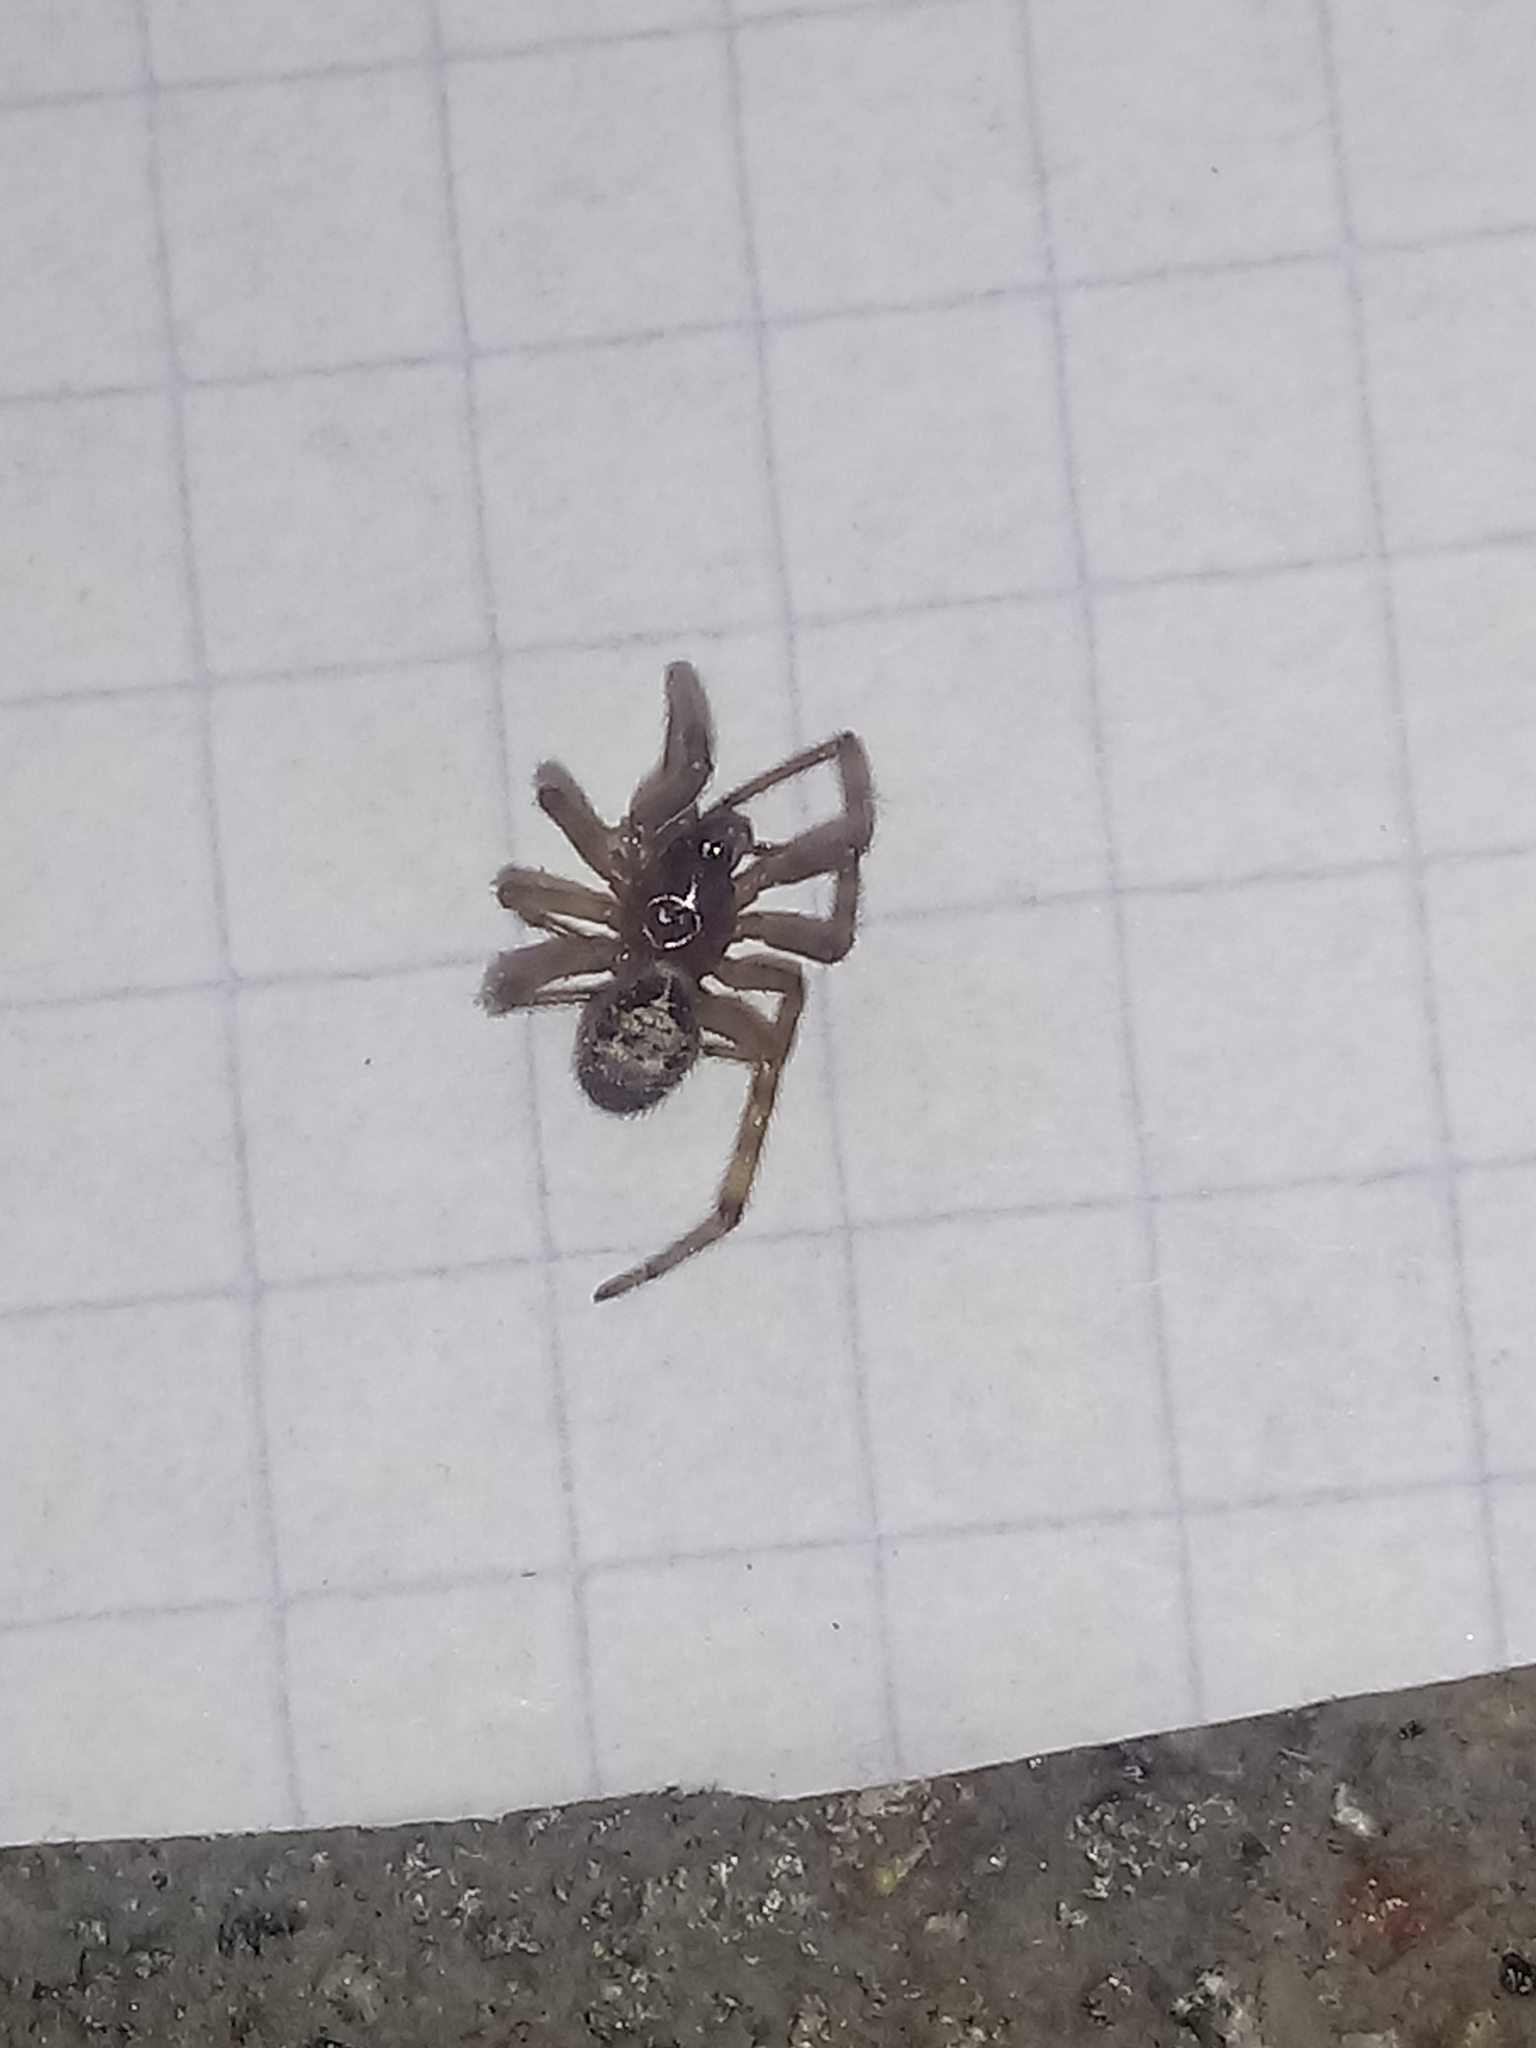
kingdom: Animalia
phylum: Arthropoda
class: Arachnida
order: Araneae
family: Theridiidae
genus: Steatoda
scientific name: Steatoda nobilis
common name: Cobweb weaver
